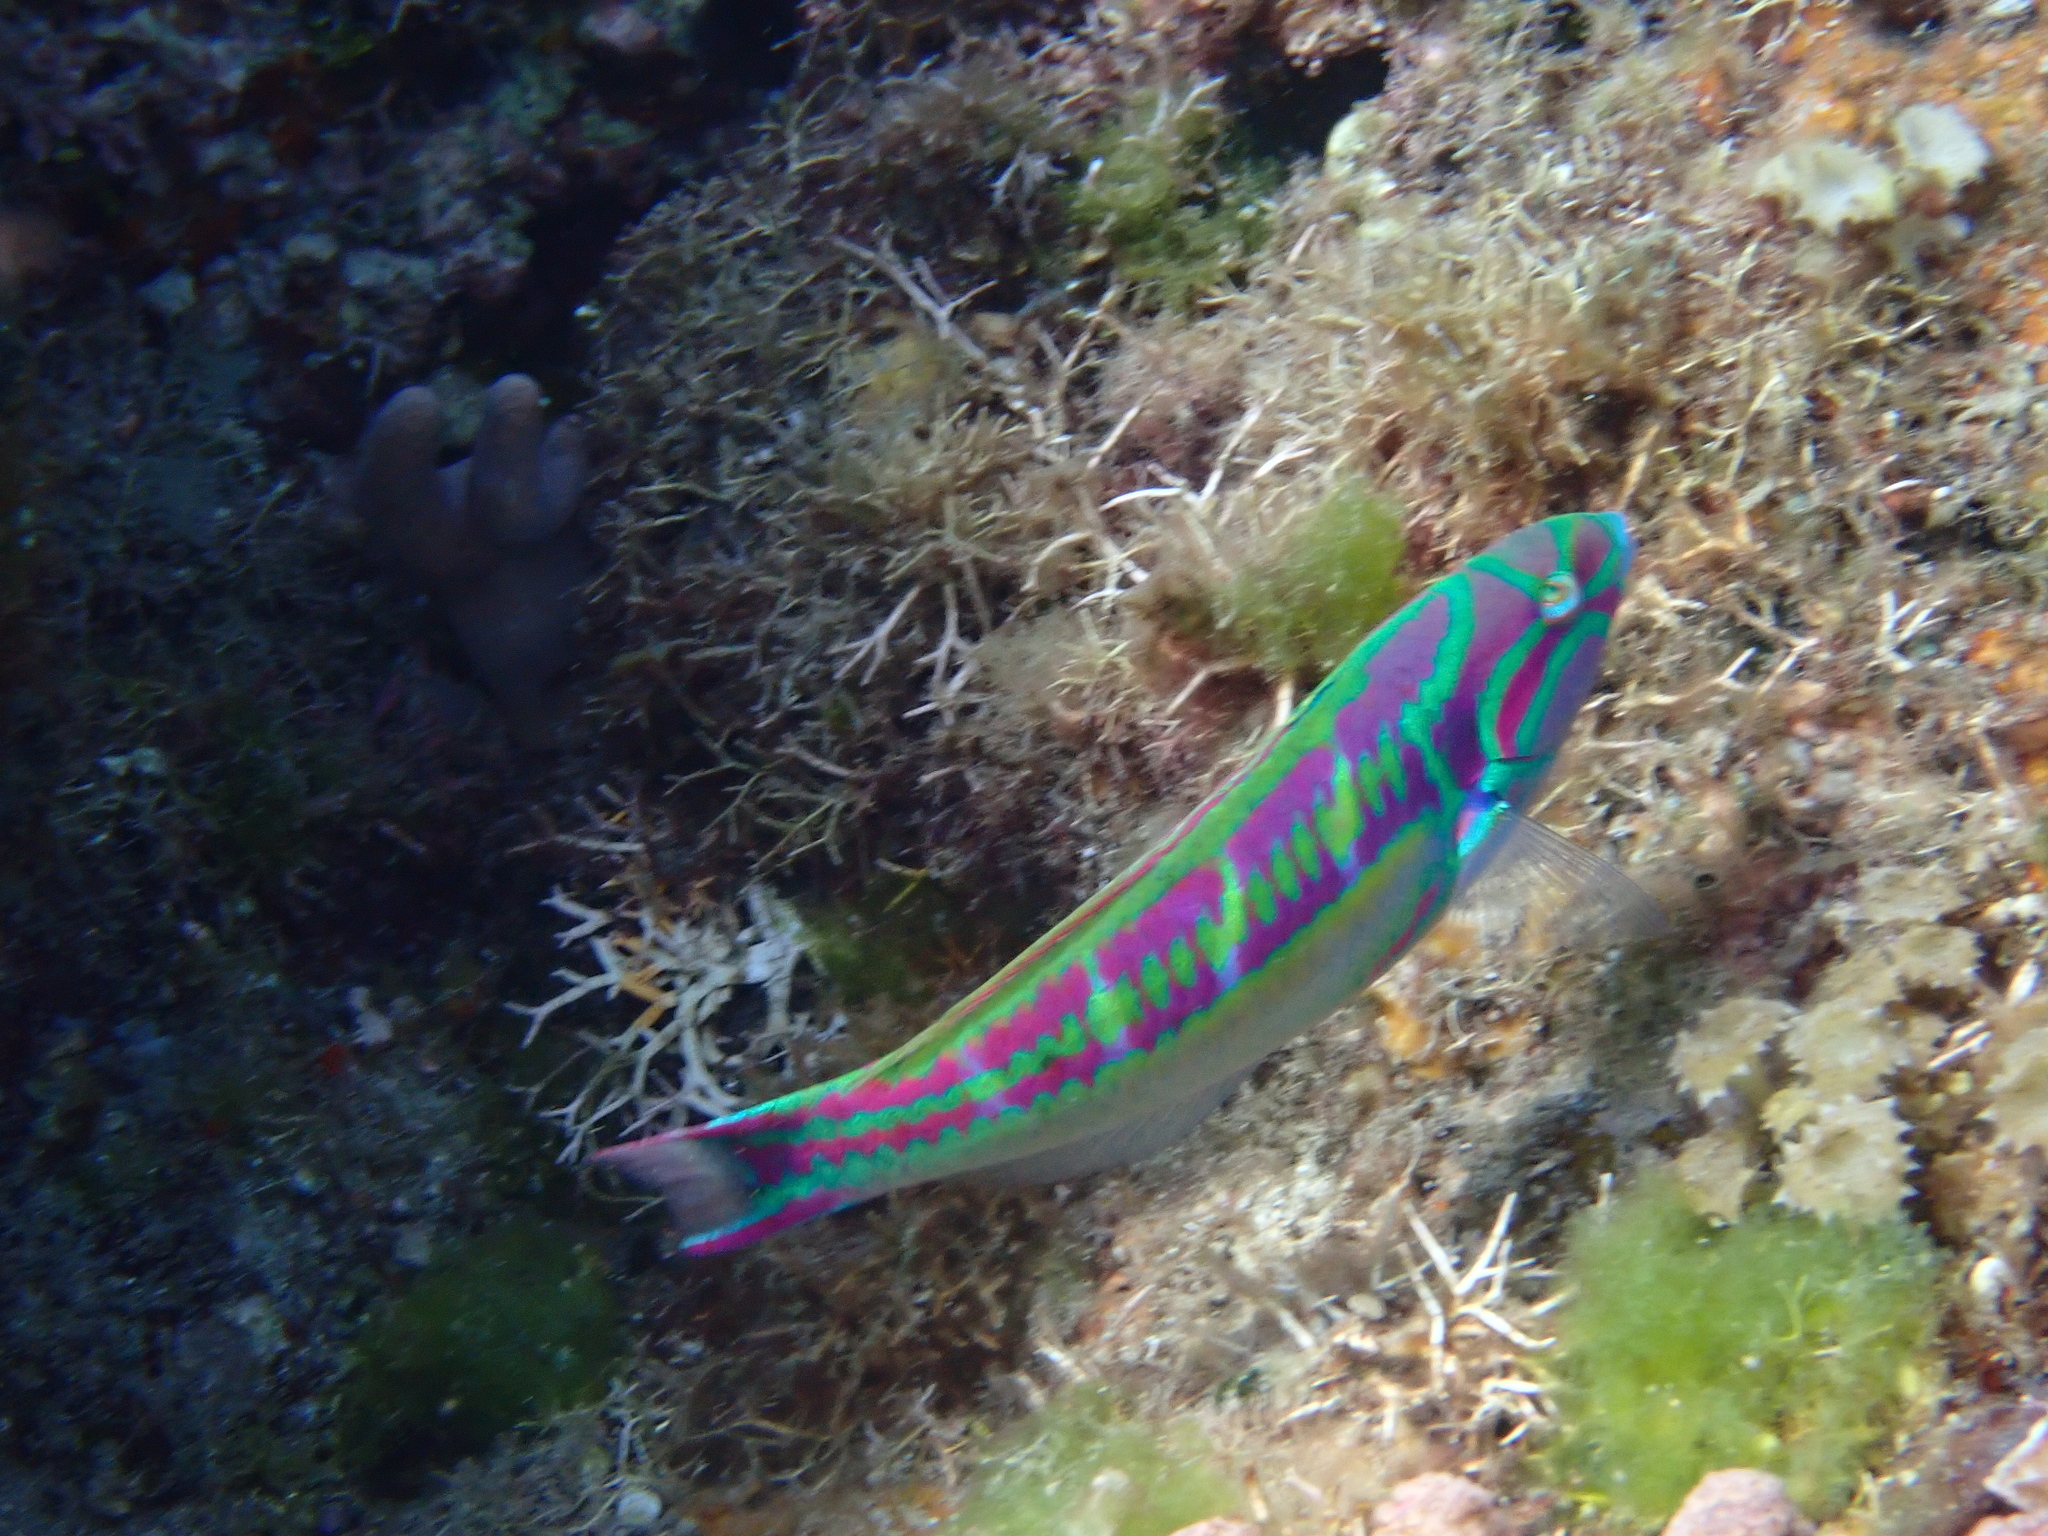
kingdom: Animalia
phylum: Chordata
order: Perciformes
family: Labridae
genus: Thalassoma
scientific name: Thalassoma quinquevittatum
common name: Five striped surge wrasse
